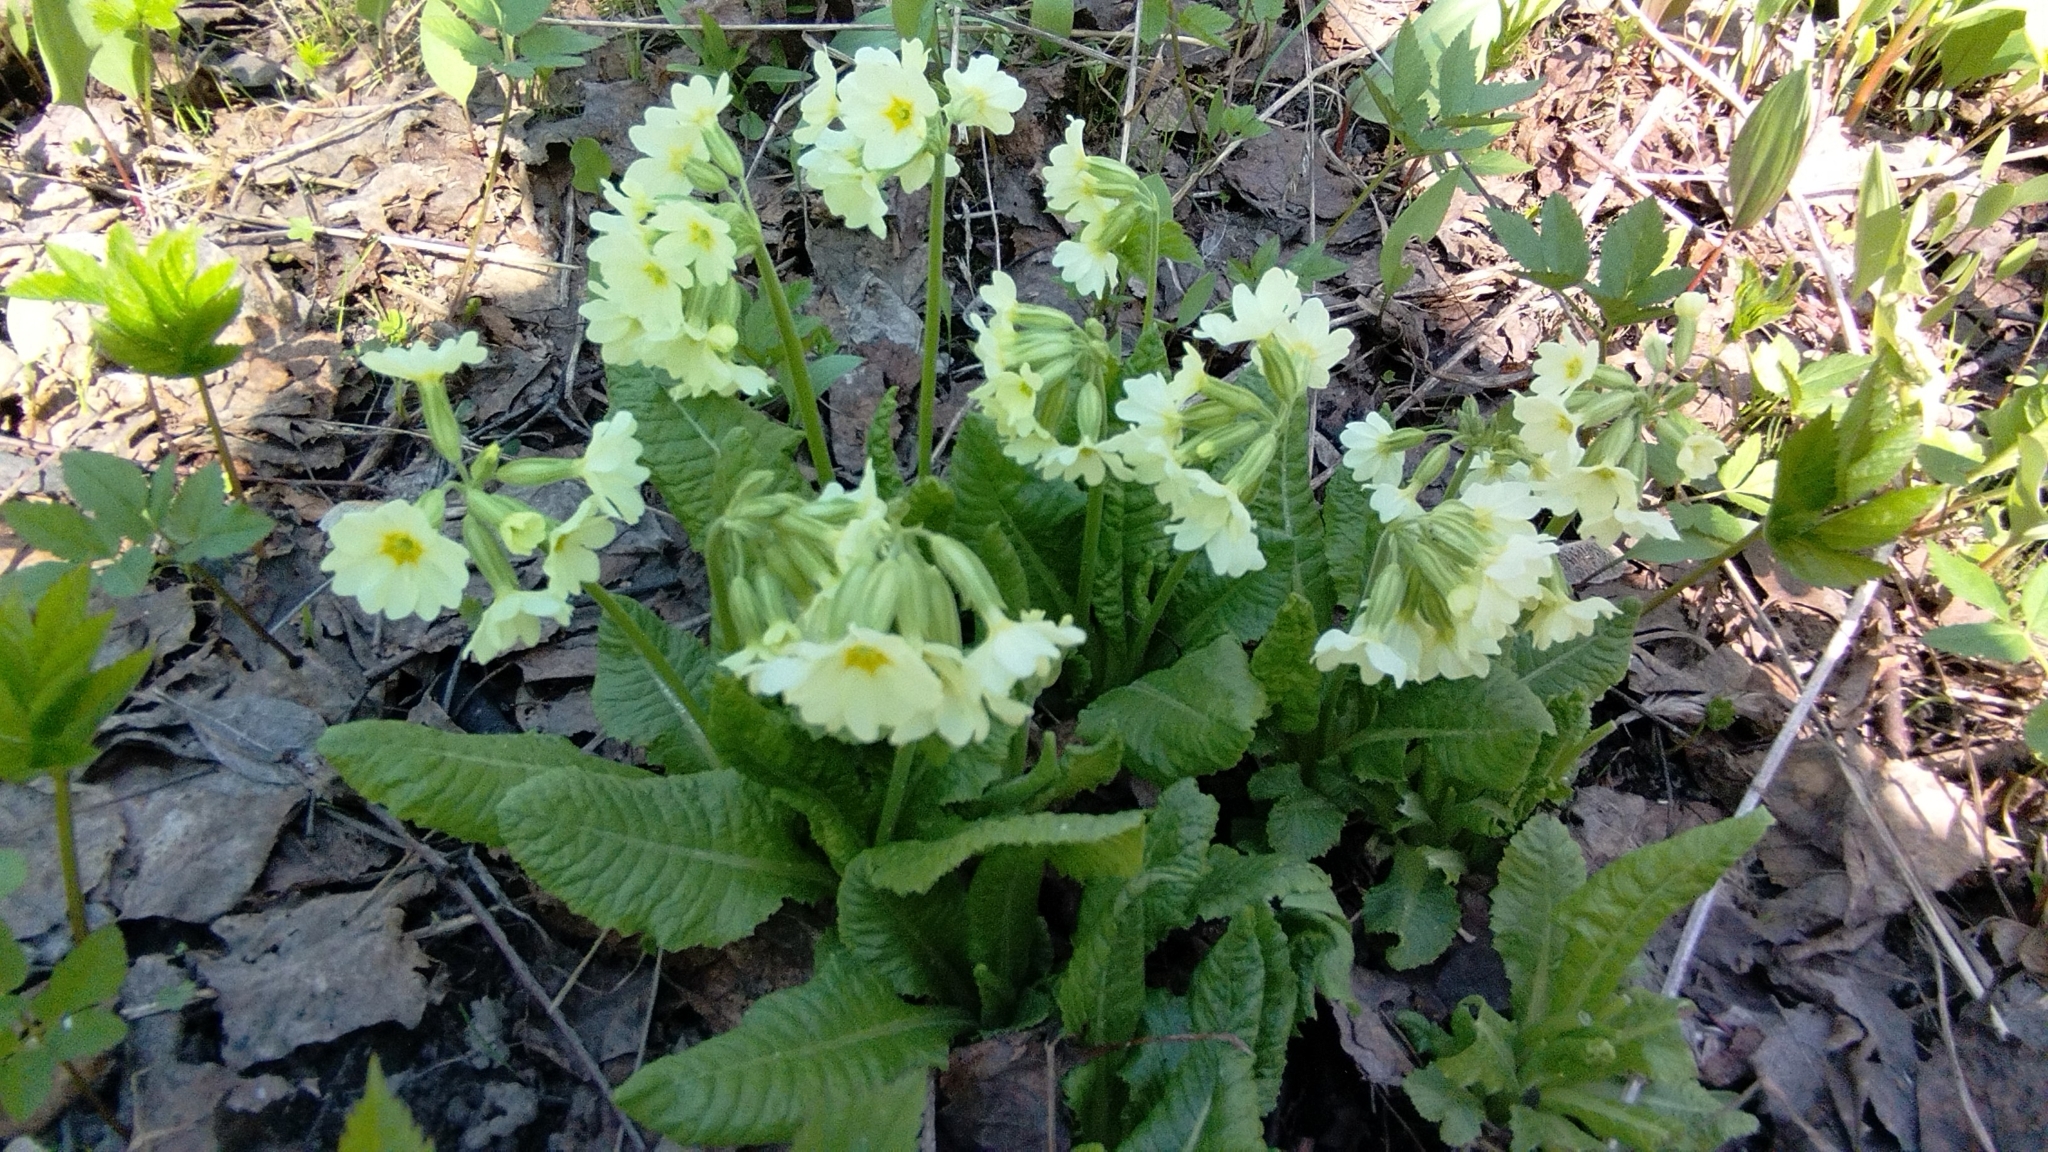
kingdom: Plantae
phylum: Tracheophyta
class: Magnoliopsida
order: Ericales
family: Primulaceae
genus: Primula
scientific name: Primula elatior
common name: Oxlip
